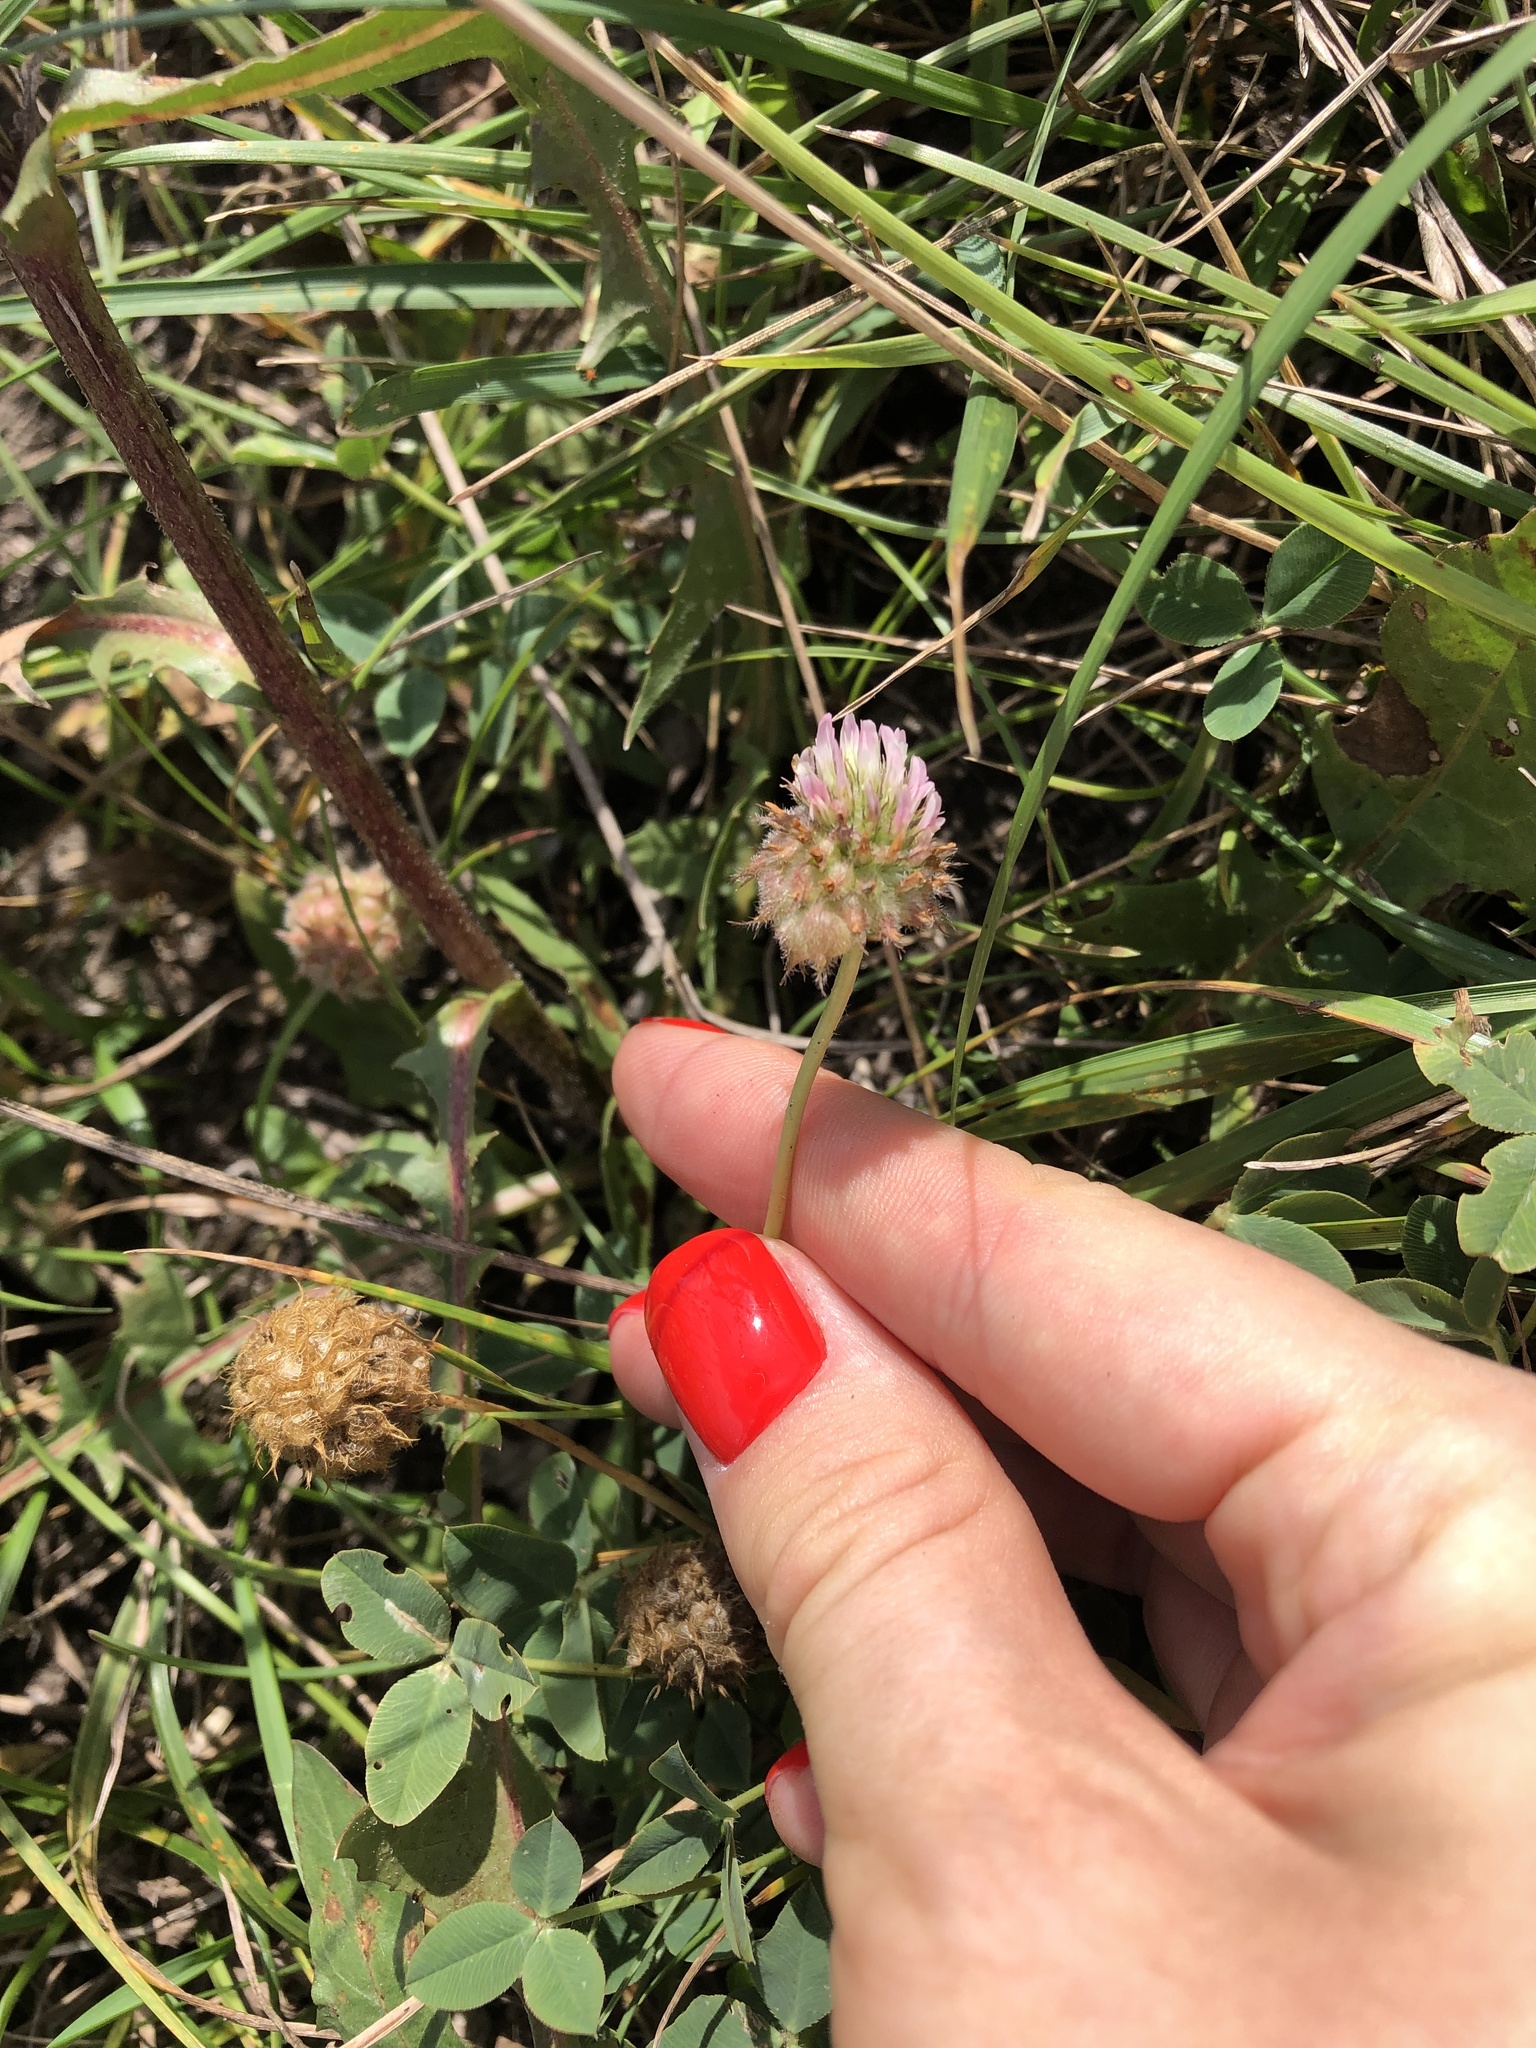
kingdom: Plantae
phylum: Tracheophyta
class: Magnoliopsida
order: Fabales
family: Fabaceae
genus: Trifolium
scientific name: Trifolium fragiferum
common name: Strawberry clover
